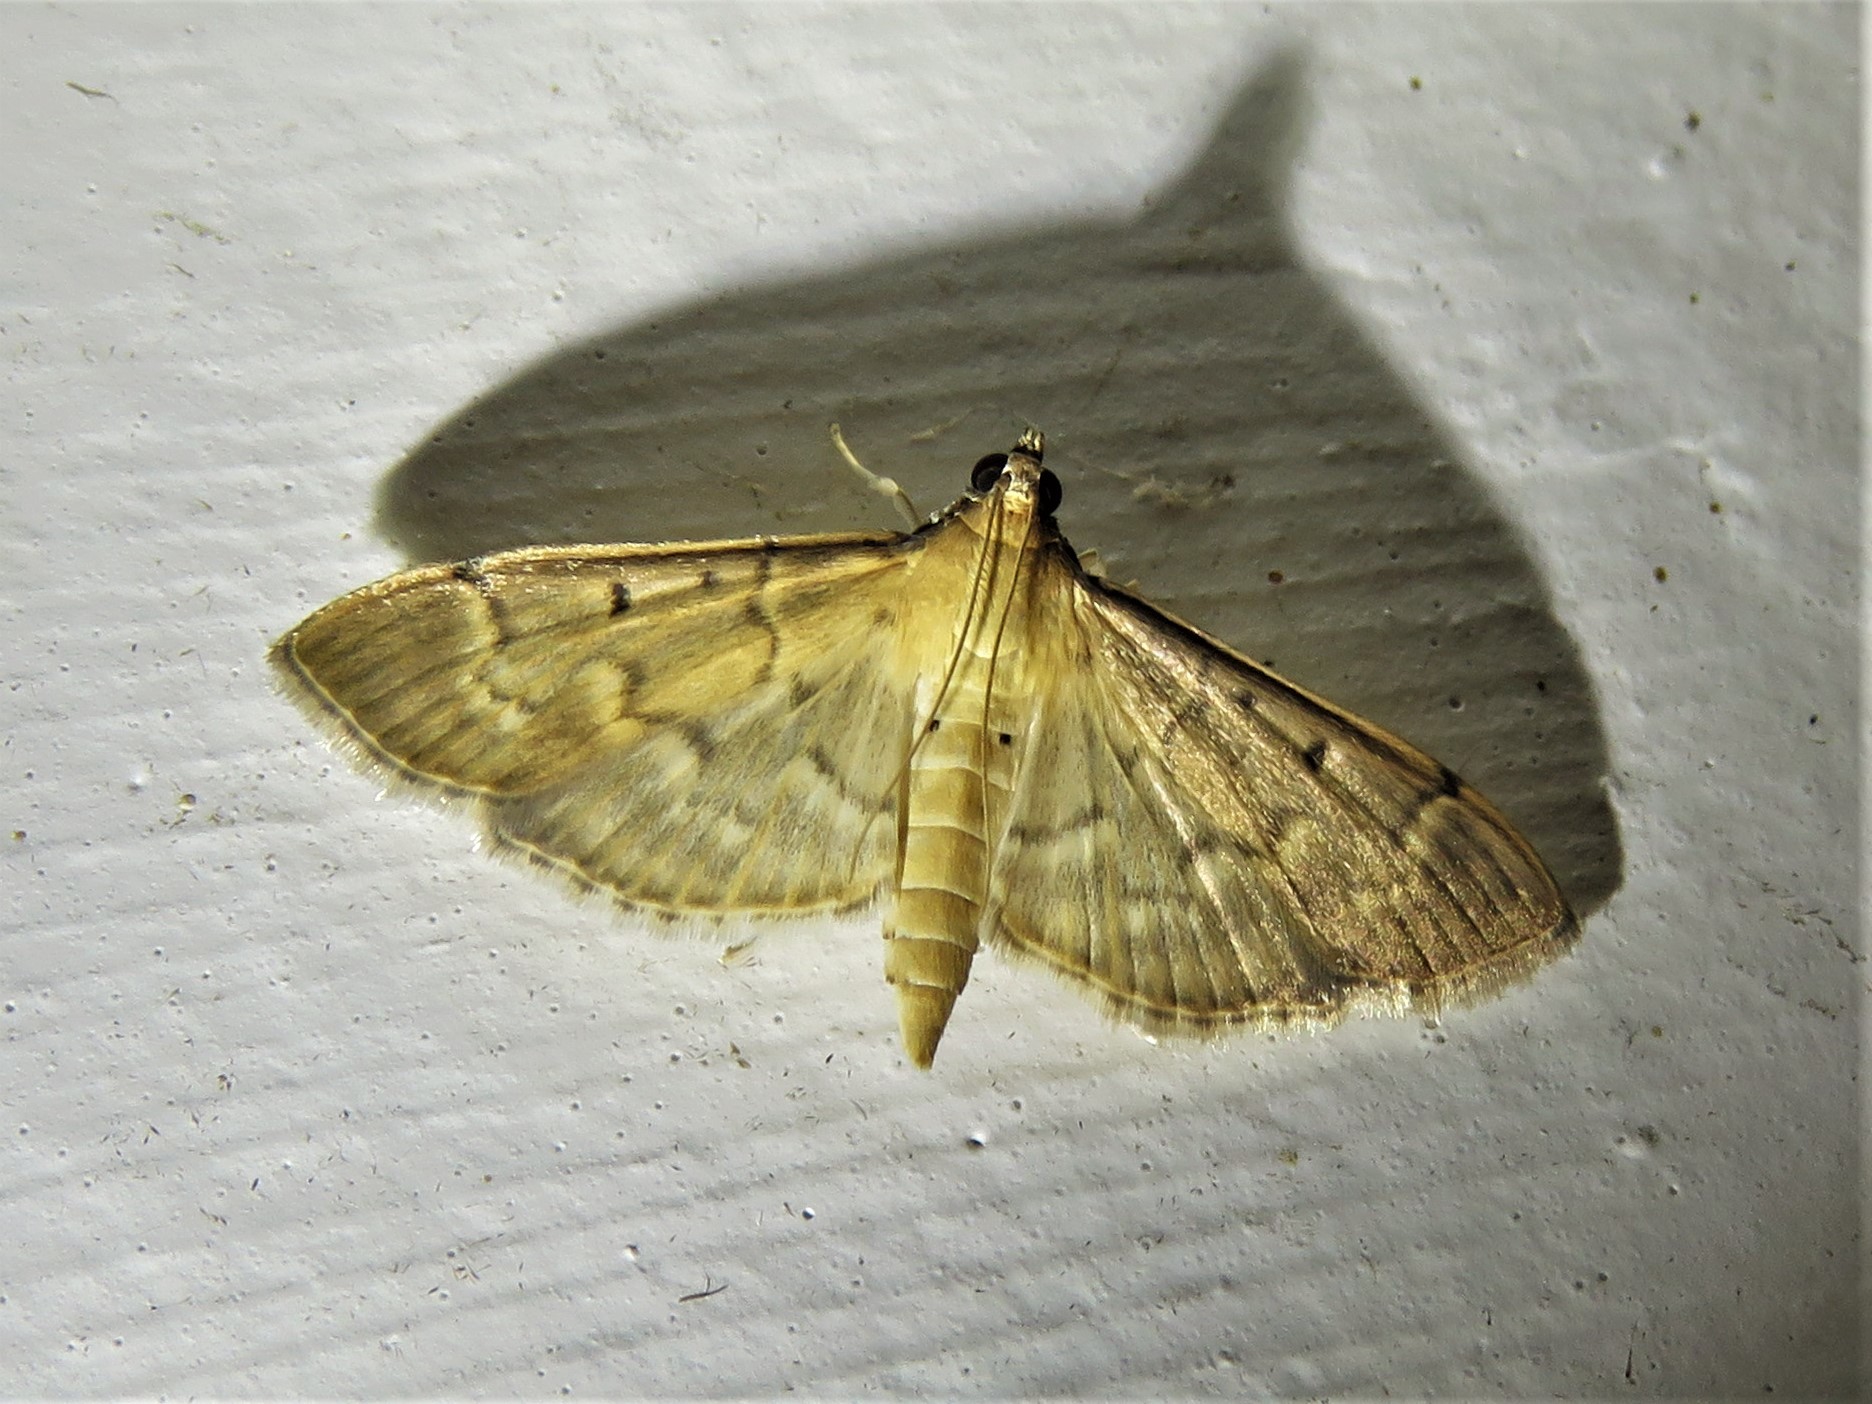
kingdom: Animalia
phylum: Arthropoda
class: Insecta
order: Lepidoptera
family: Crambidae
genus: Herpetogramma
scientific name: Herpetogramma bipunctalis
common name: Southern beet webworm
